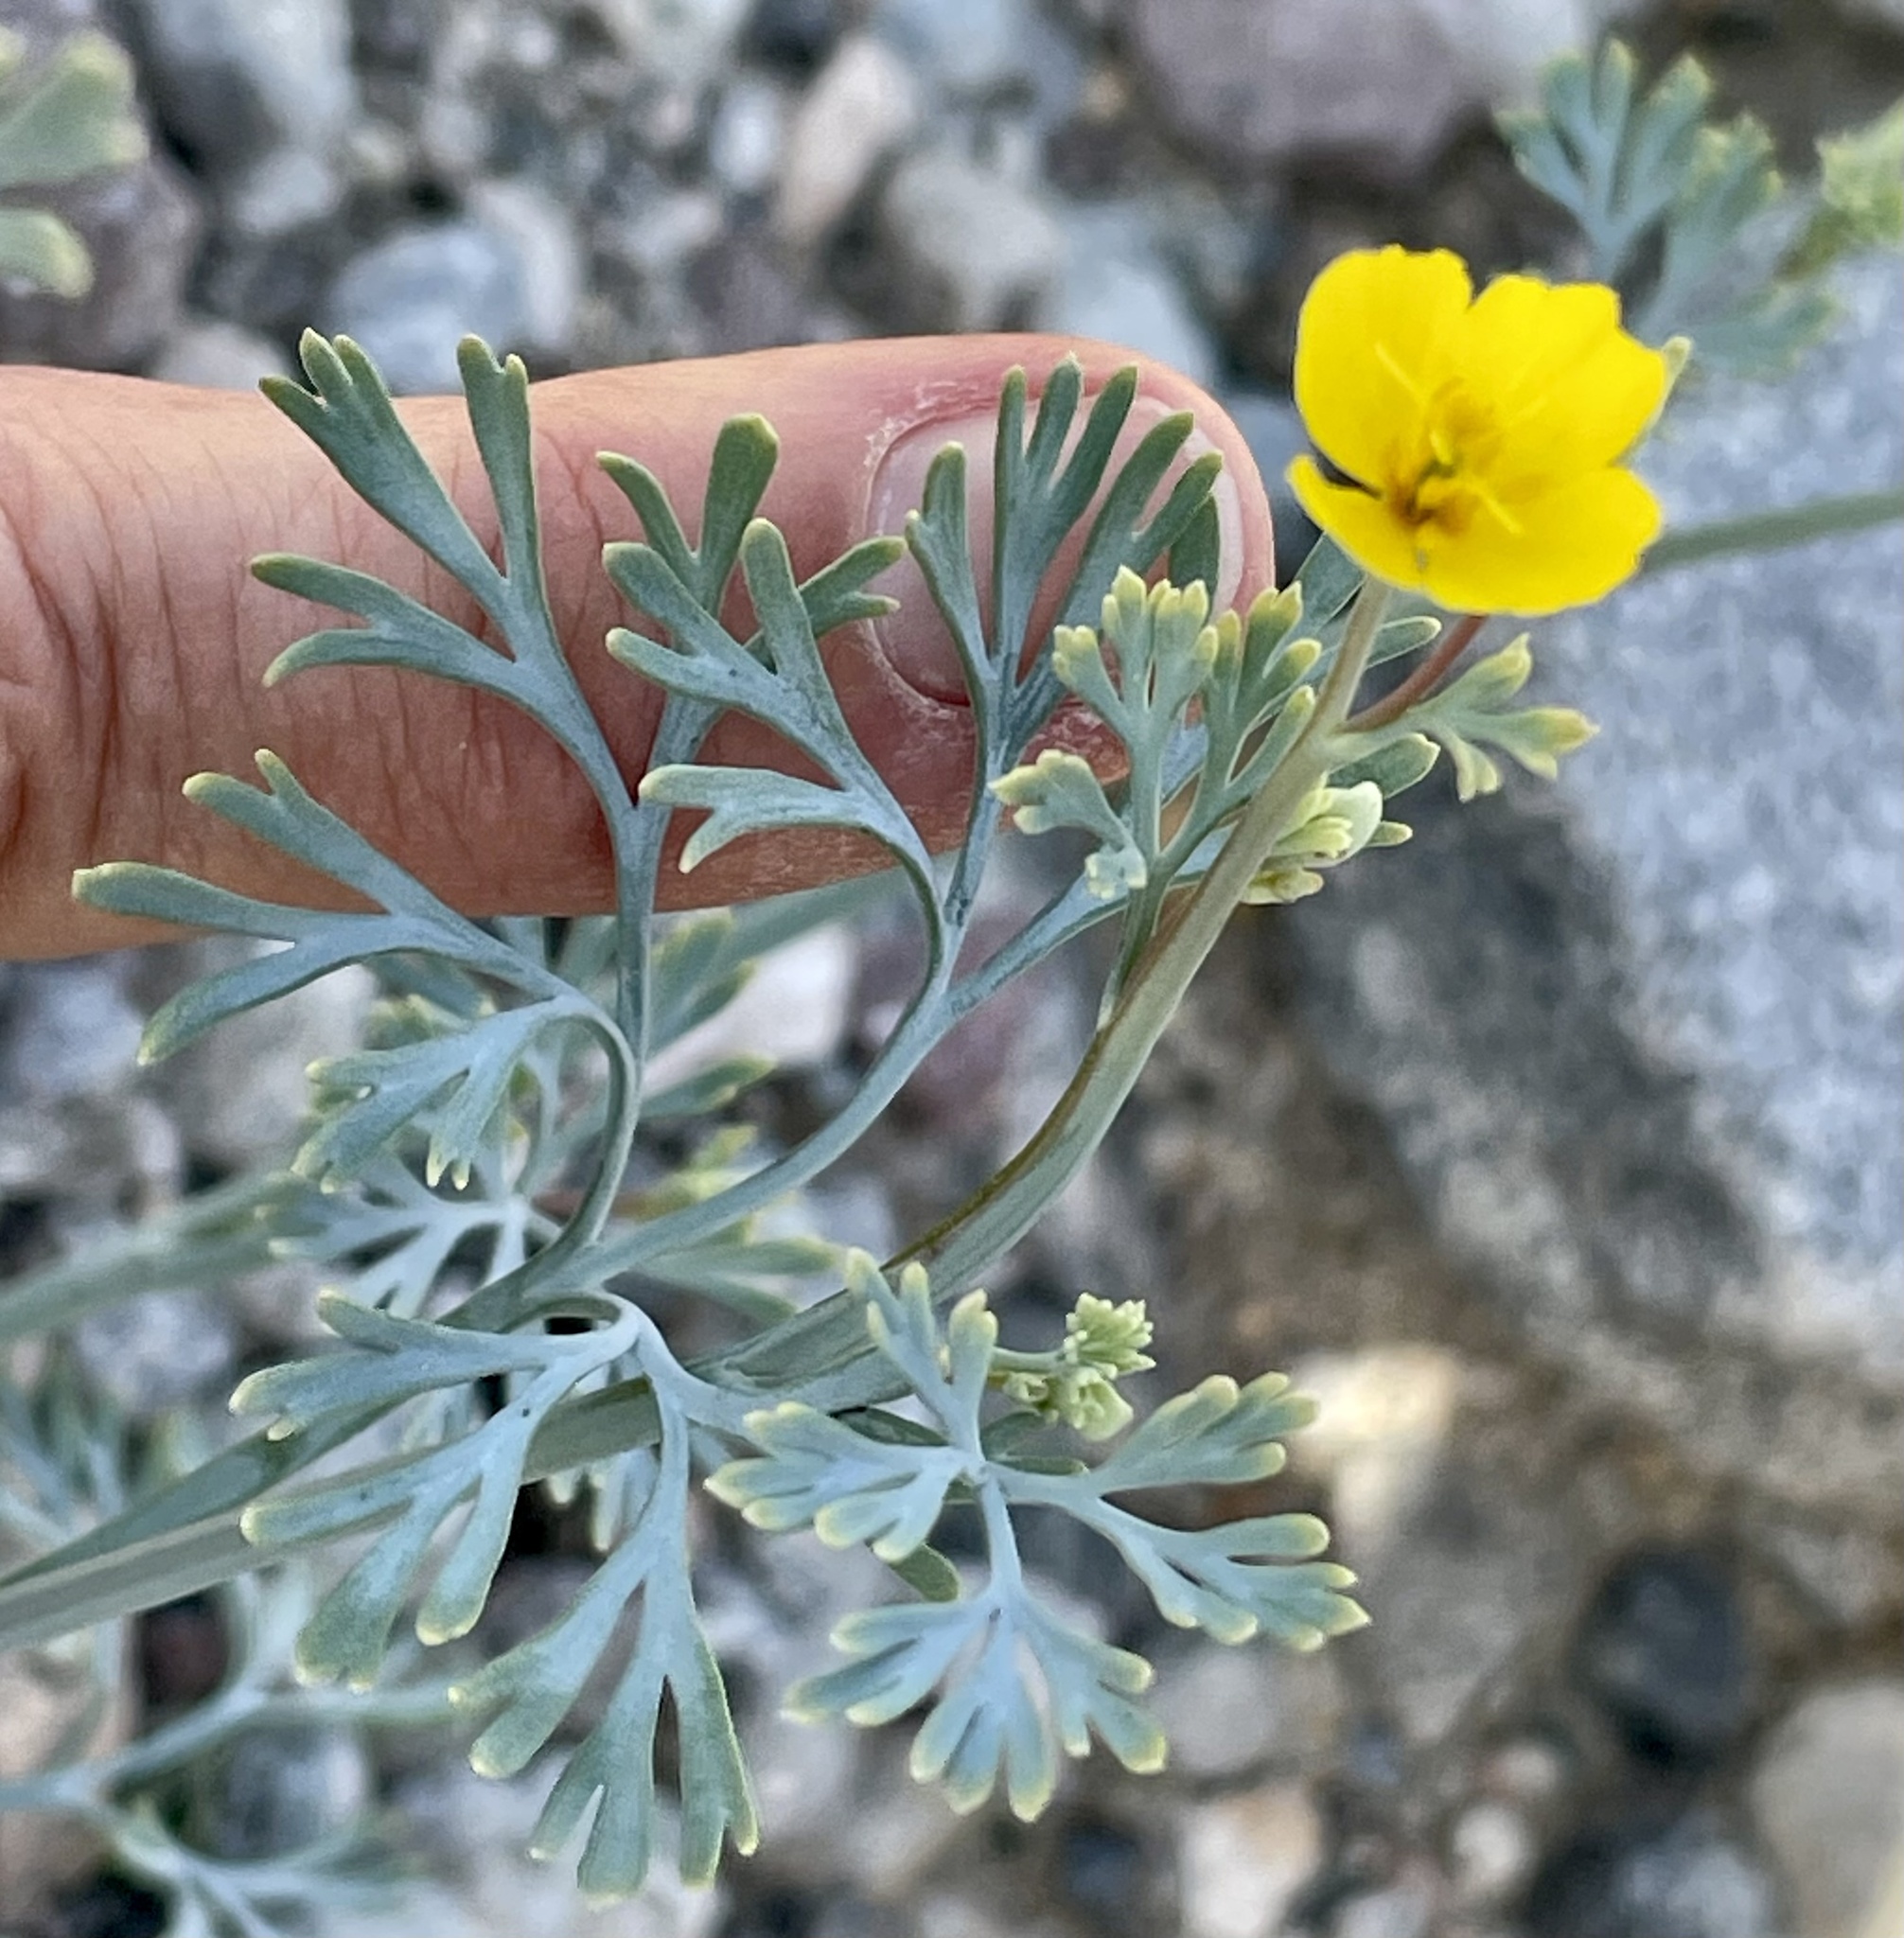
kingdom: Plantae
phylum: Tracheophyta
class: Magnoliopsida
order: Ranunculales
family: Papaveraceae
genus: Eschscholzia
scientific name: Eschscholzia minutiflora
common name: Small-flower california-poppy
